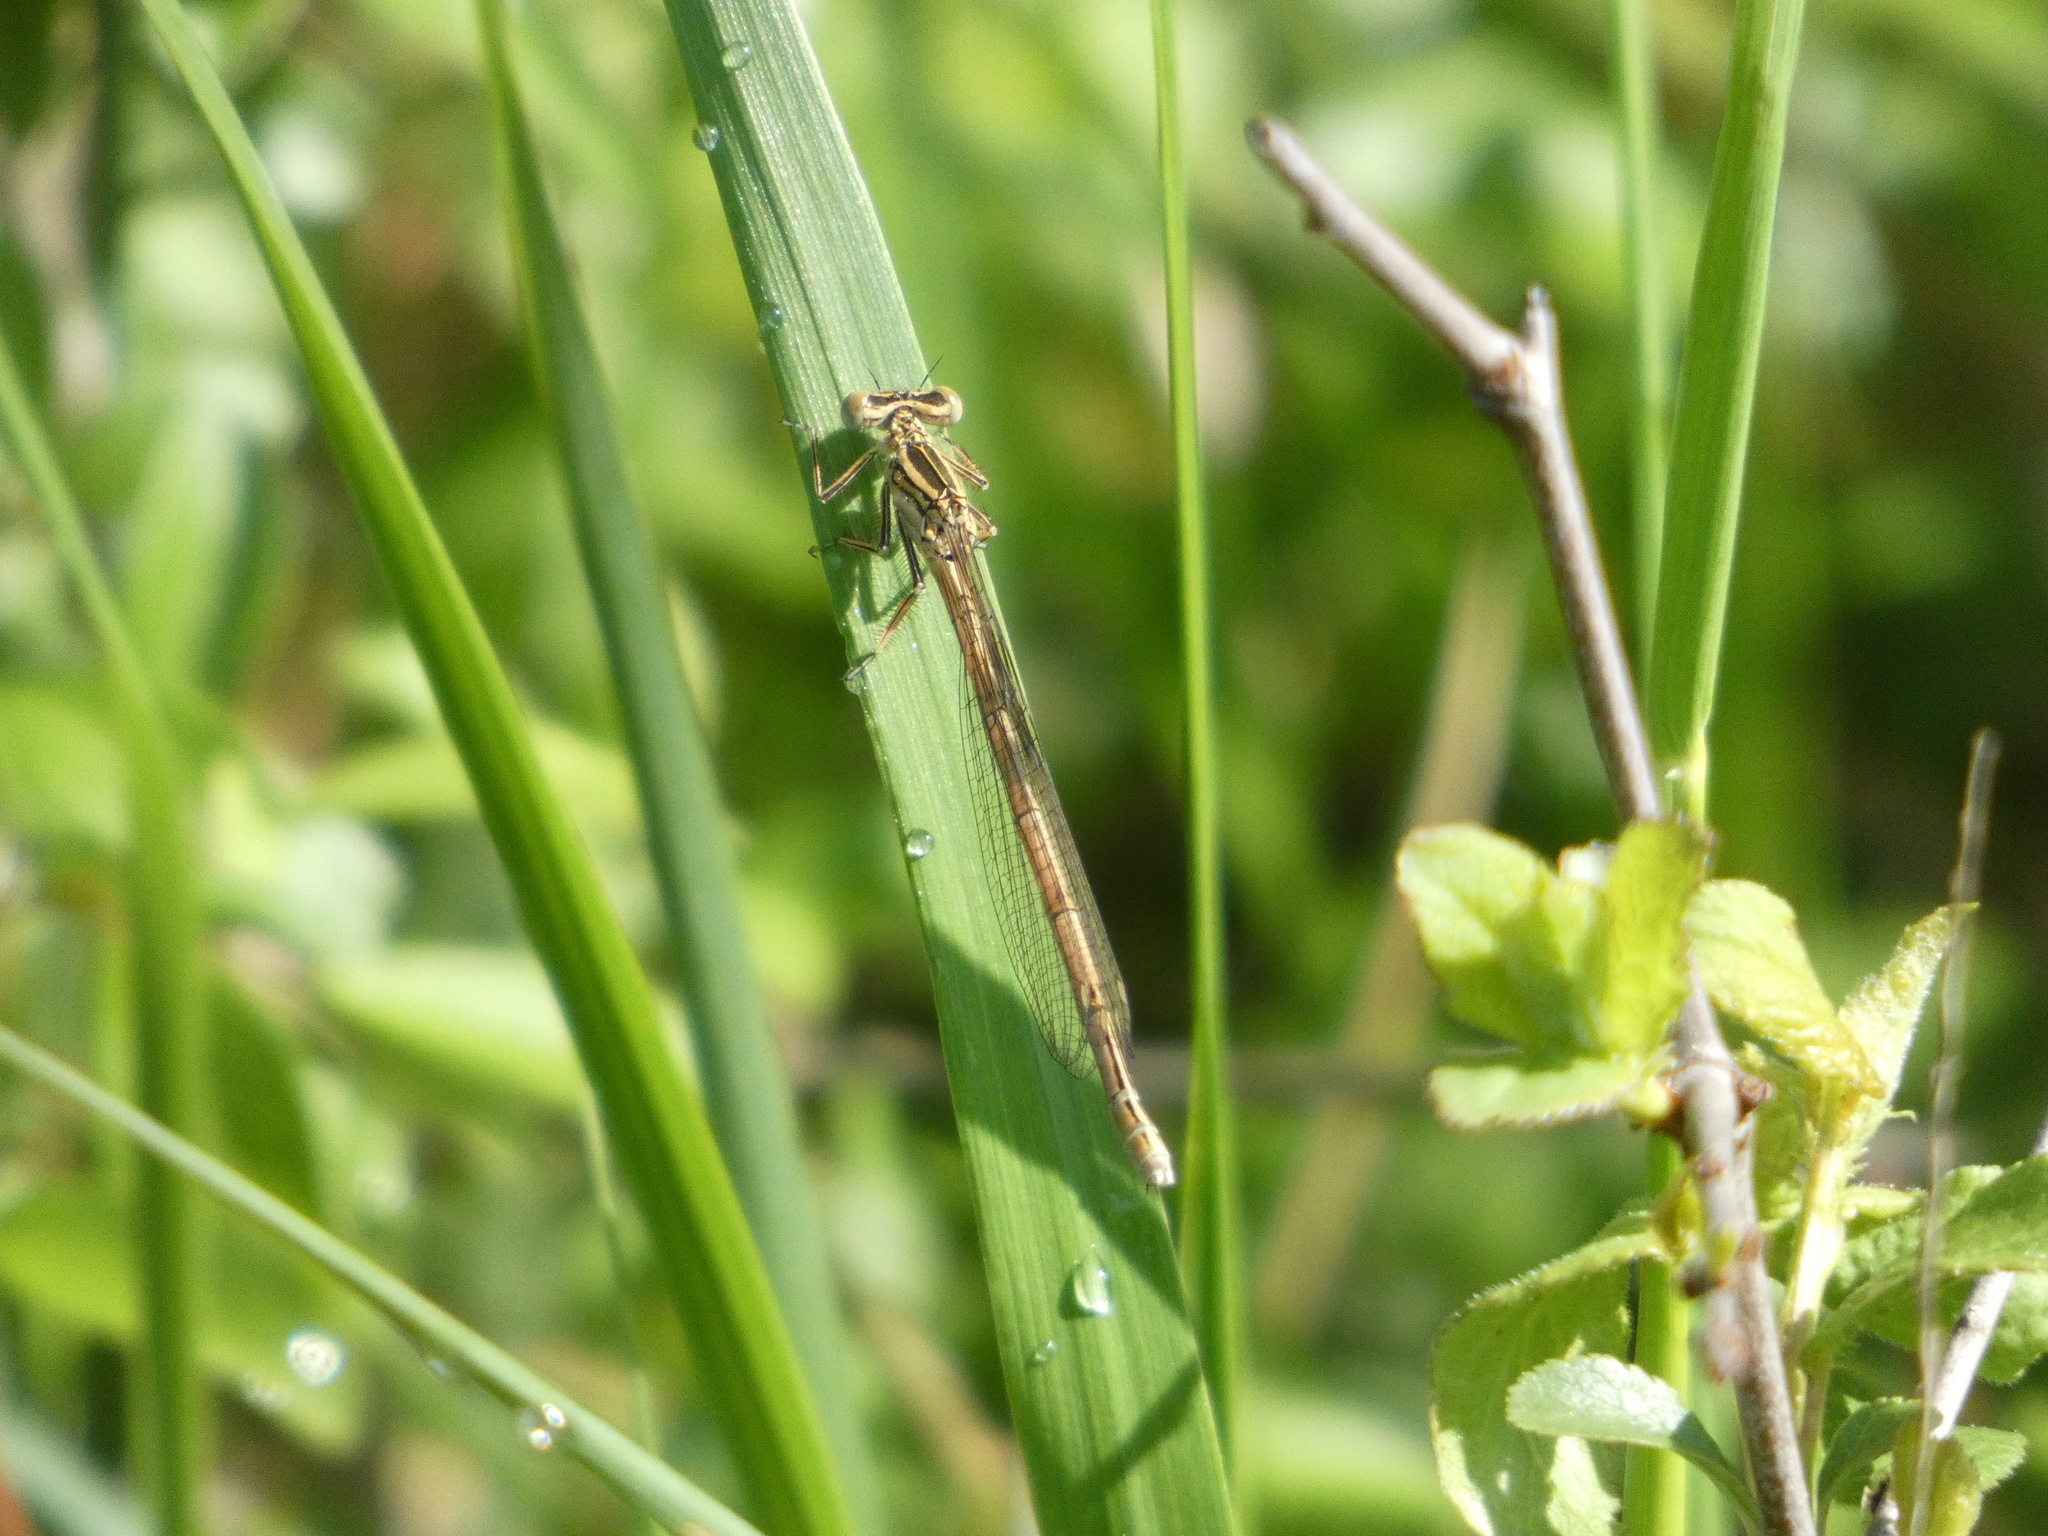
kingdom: Animalia
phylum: Arthropoda
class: Insecta
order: Odonata
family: Platycnemididae
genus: Platycnemis
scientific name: Platycnemis pennipes
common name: White-legged damselfly
